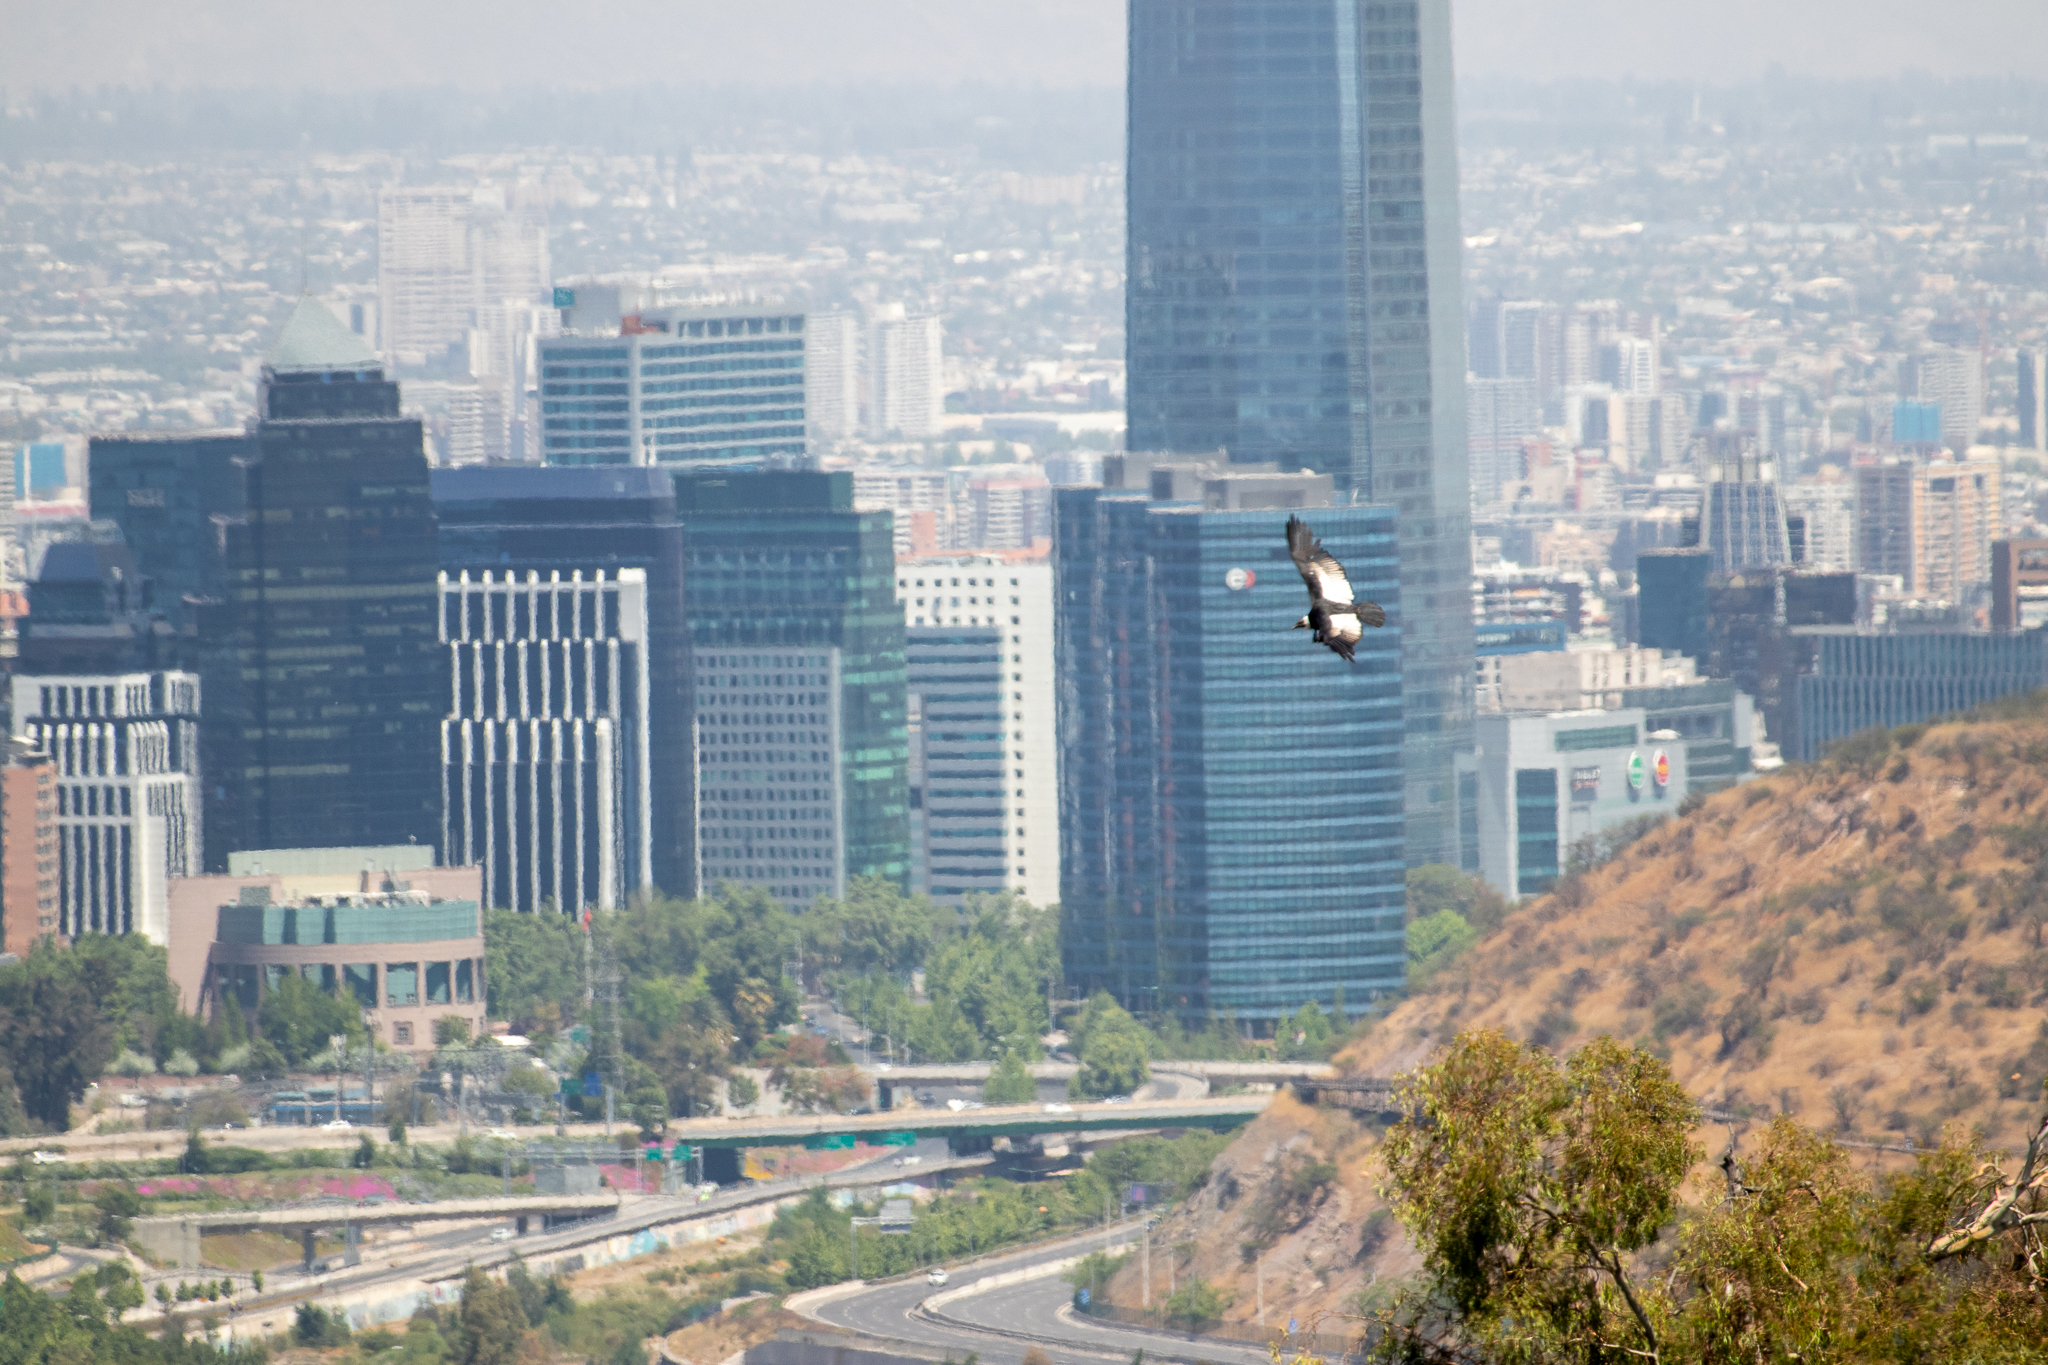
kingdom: Animalia
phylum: Chordata
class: Aves
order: Accipitriformes
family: Cathartidae
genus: Vultur
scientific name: Vultur gryphus
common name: Andean condor
